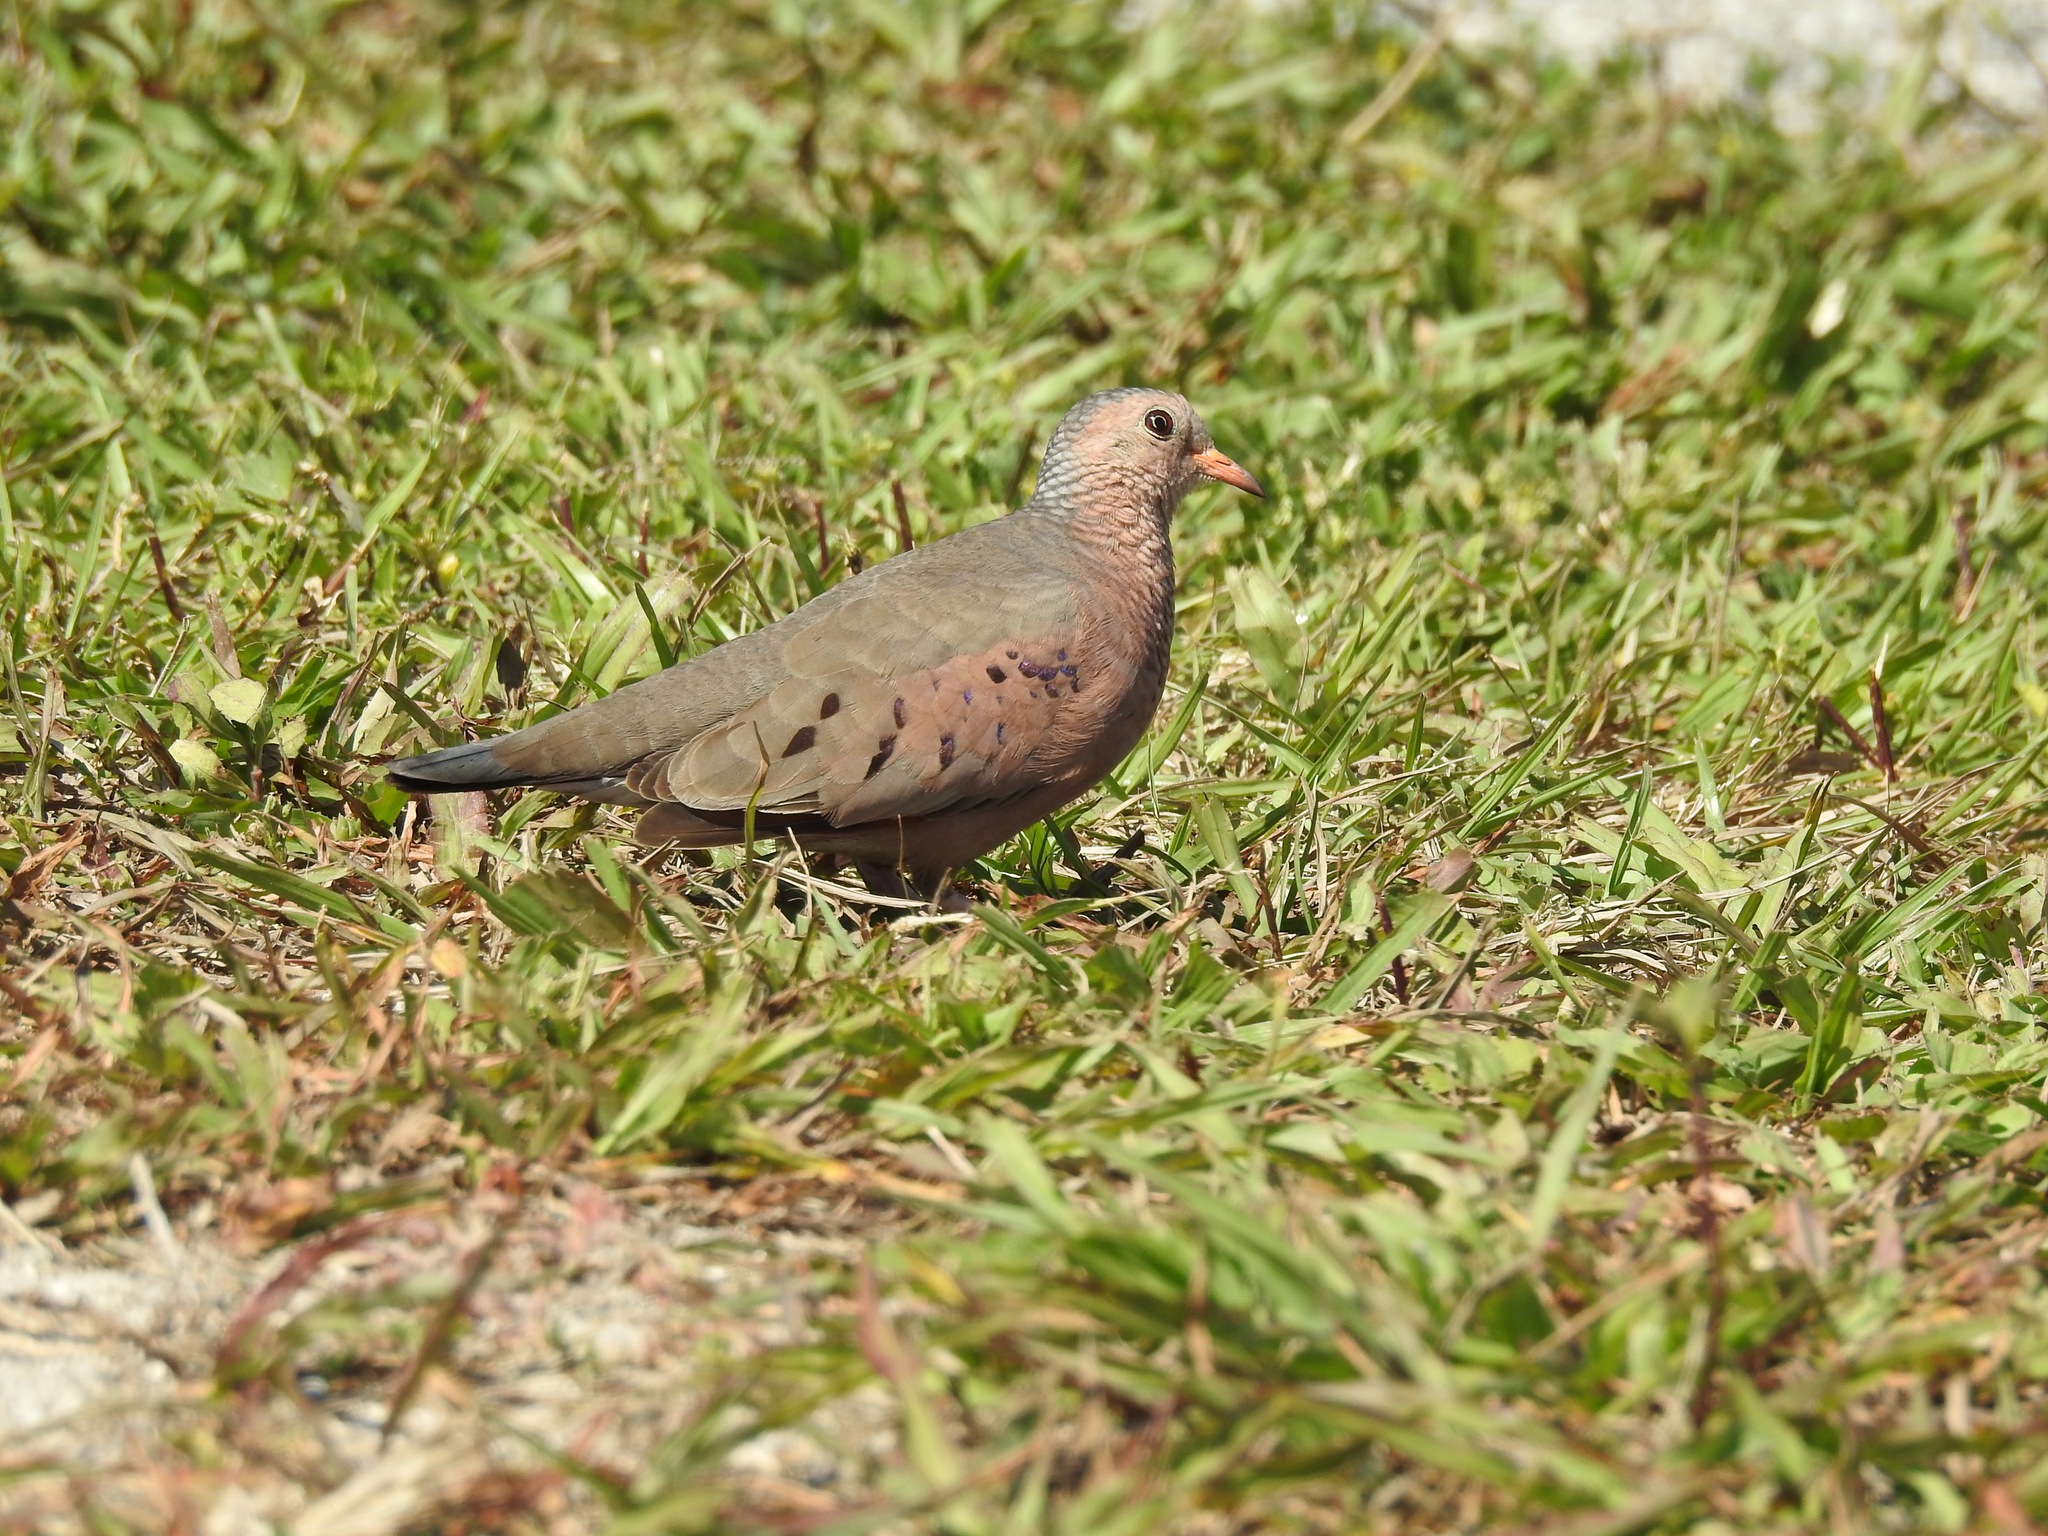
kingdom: Animalia
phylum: Chordata
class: Aves
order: Columbiformes
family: Columbidae
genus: Columbina
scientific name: Columbina passerina
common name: Common ground-dove
